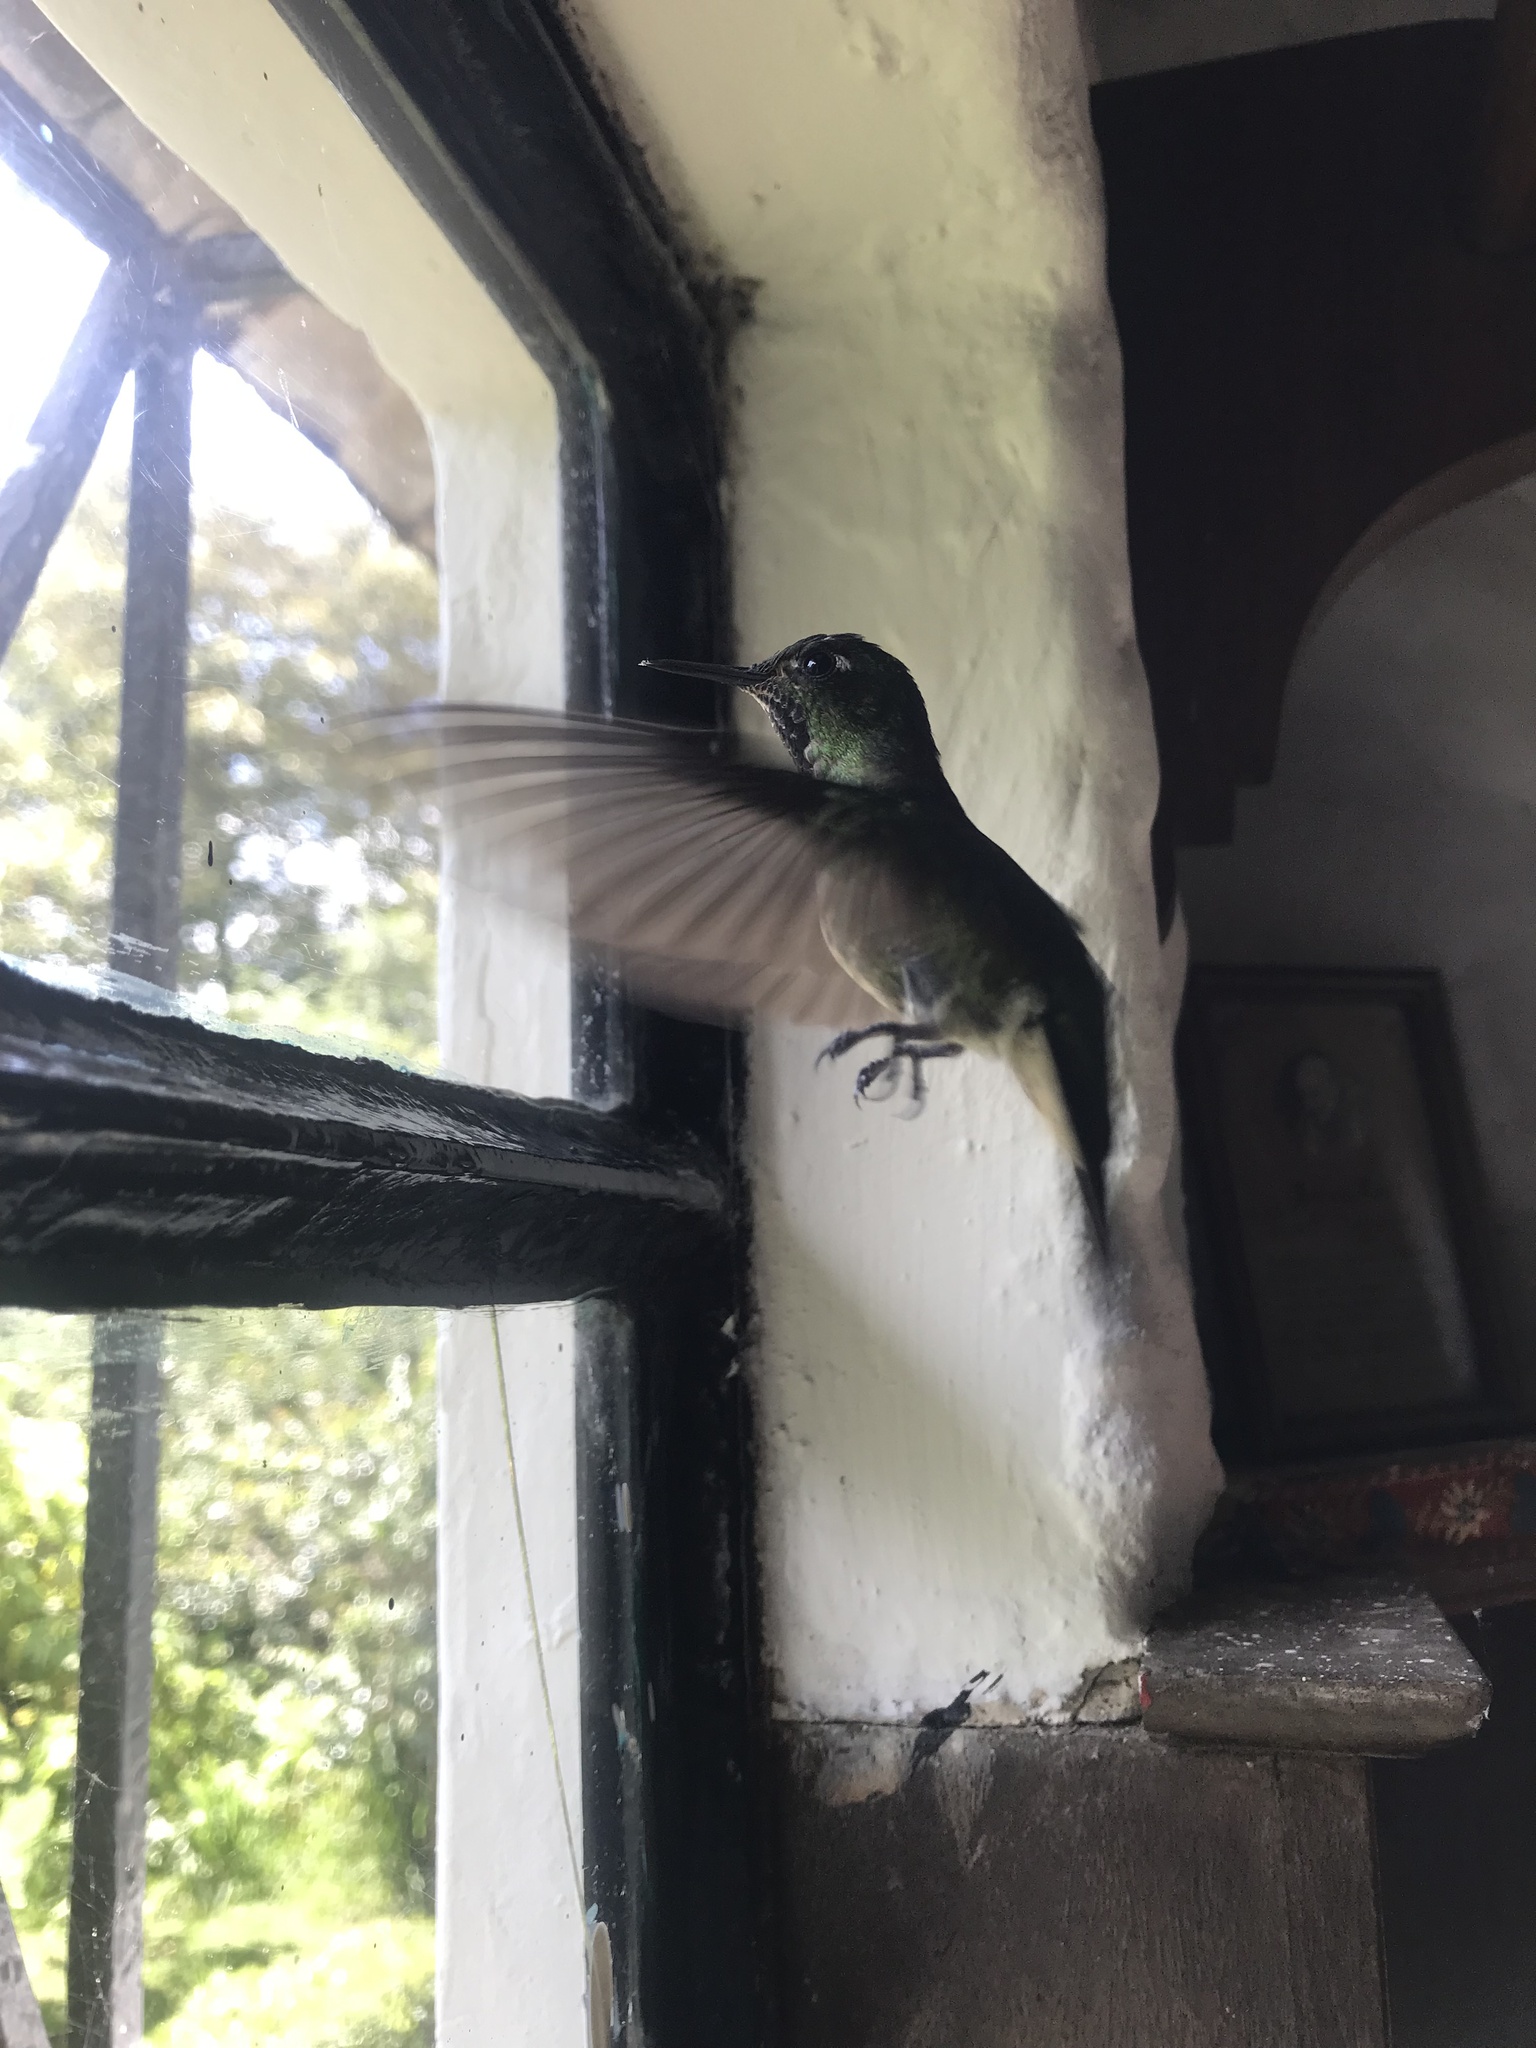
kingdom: Animalia
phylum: Chordata
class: Aves
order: Apodiformes
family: Trochilidae
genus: Lesbia
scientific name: Lesbia nuna
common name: Green-tailed trainbearer
